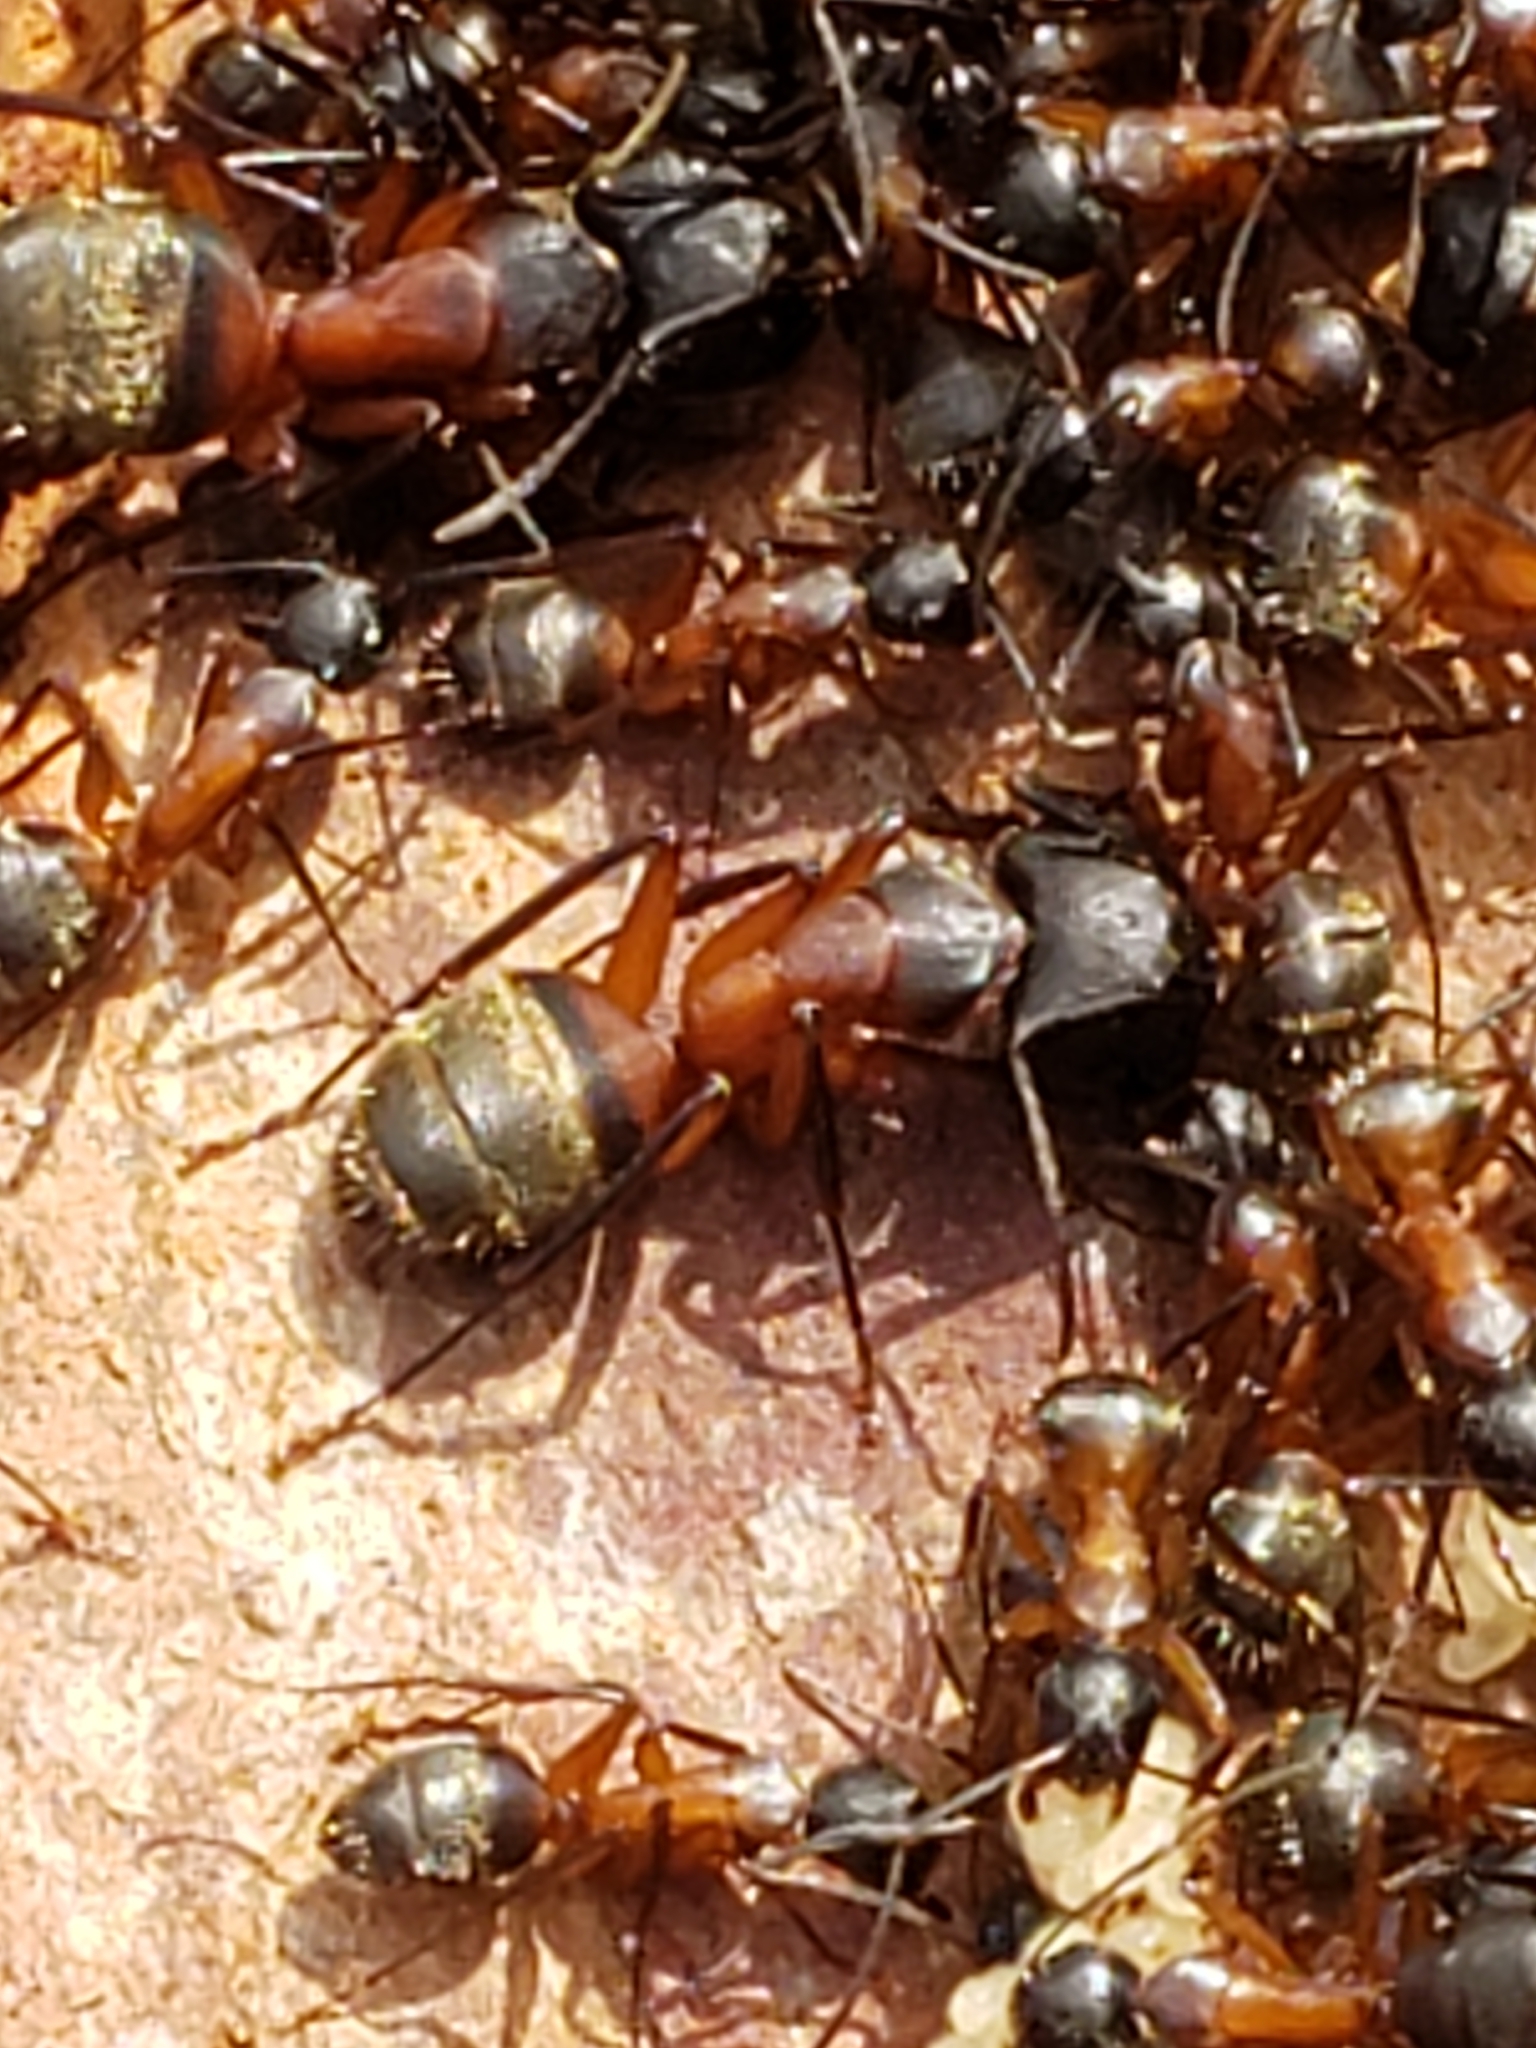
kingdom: Animalia
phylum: Arthropoda
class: Insecta
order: Hymenoptera
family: Formicidae
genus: Camponotus
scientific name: Camponotus chromaiodes
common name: Red carpenter ant
